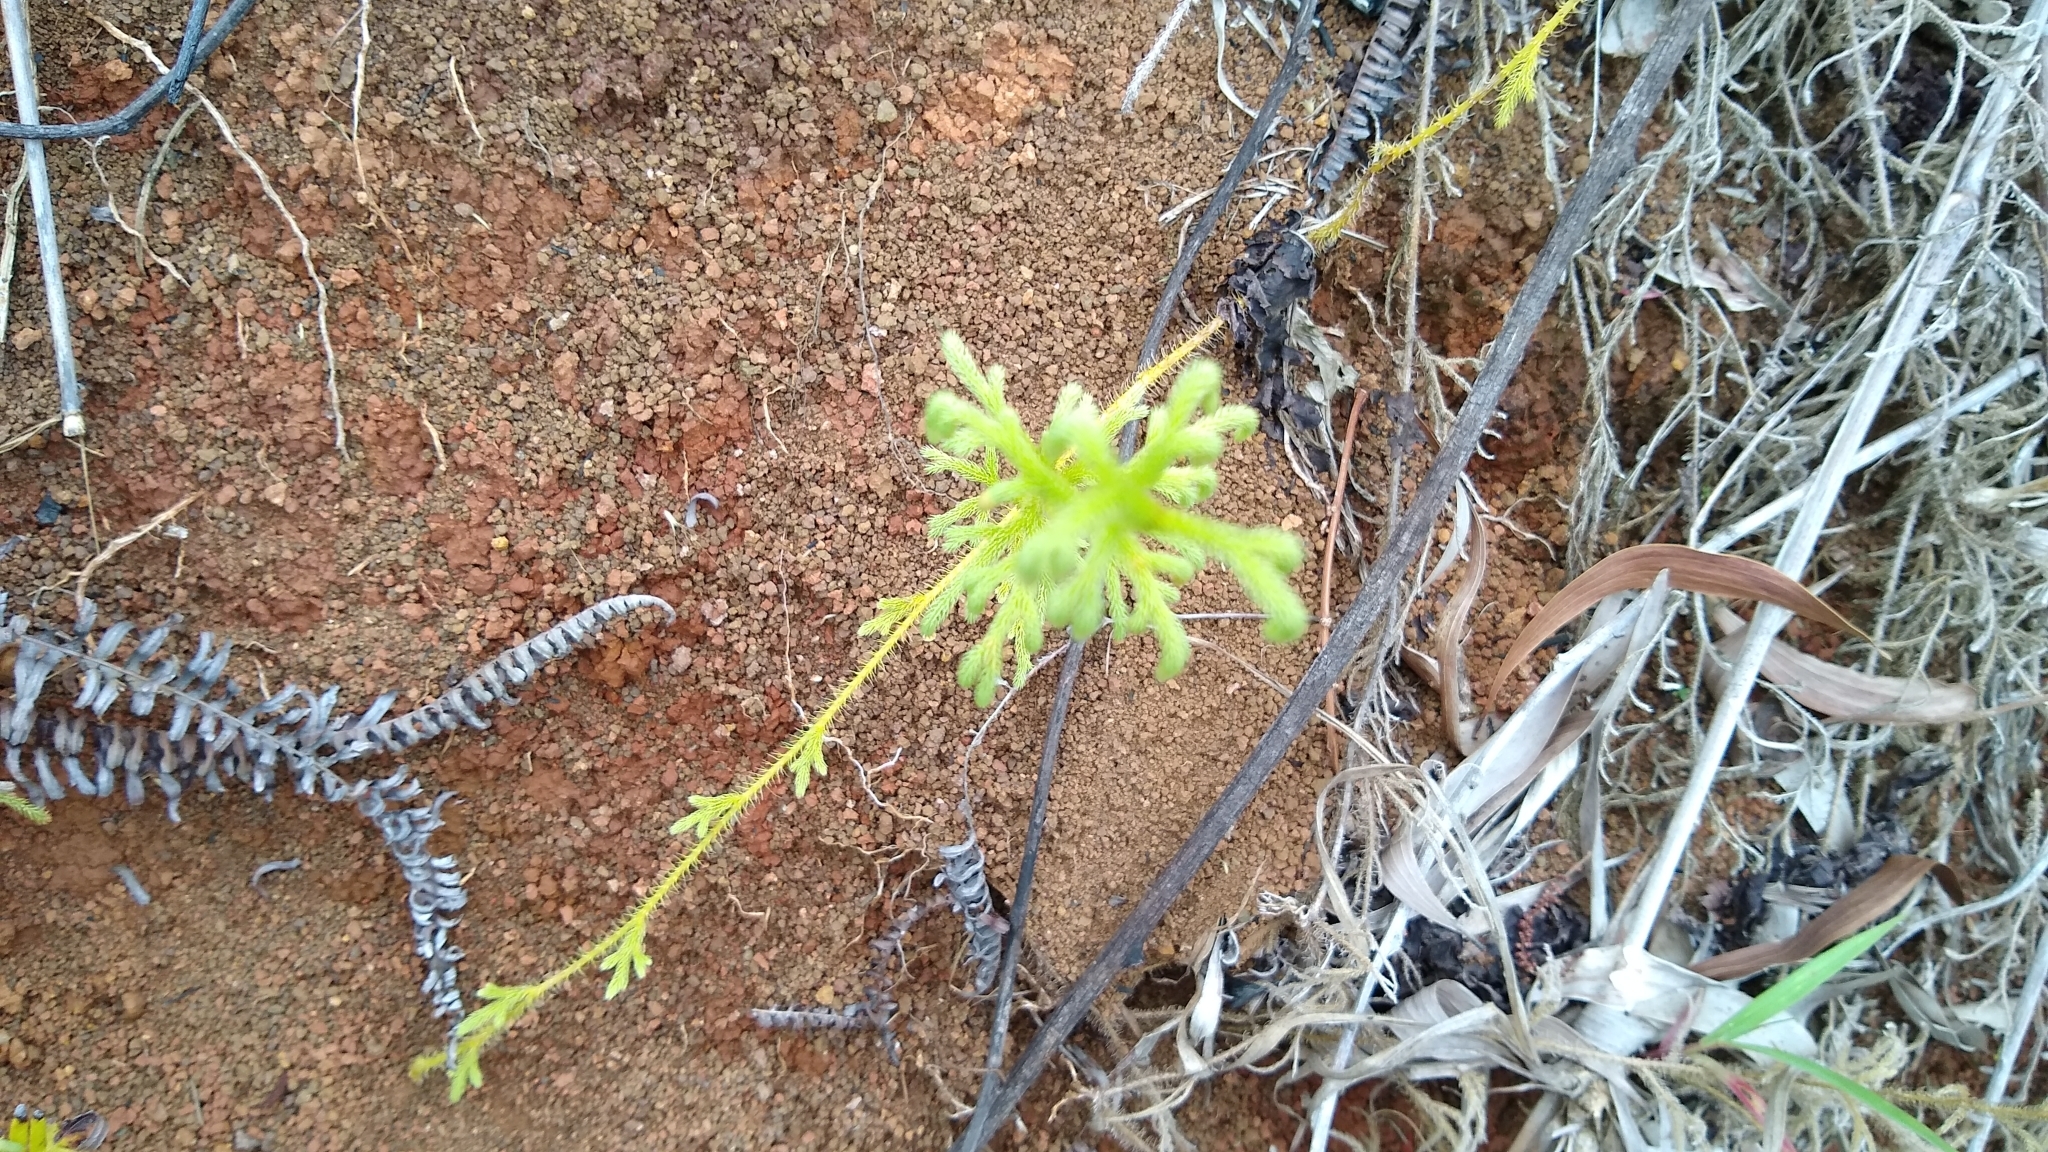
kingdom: Plantae
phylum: Tracheophyta
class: Lycopodiopsida
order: Lycopodiales
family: Lycopodiaceae
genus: Palhinhaea
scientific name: Palhinhaea cernua
